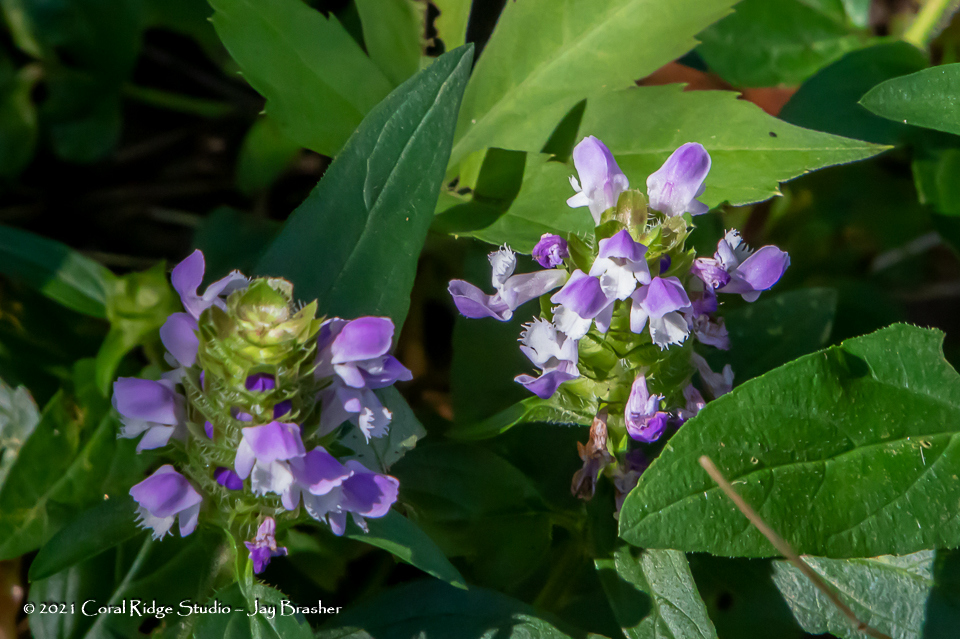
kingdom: Plantae
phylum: Tracheophyta
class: Magnoliopsida
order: Lamiales
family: Lamiaceae
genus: Prunella
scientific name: Prunella vulgaris
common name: Heal-all
